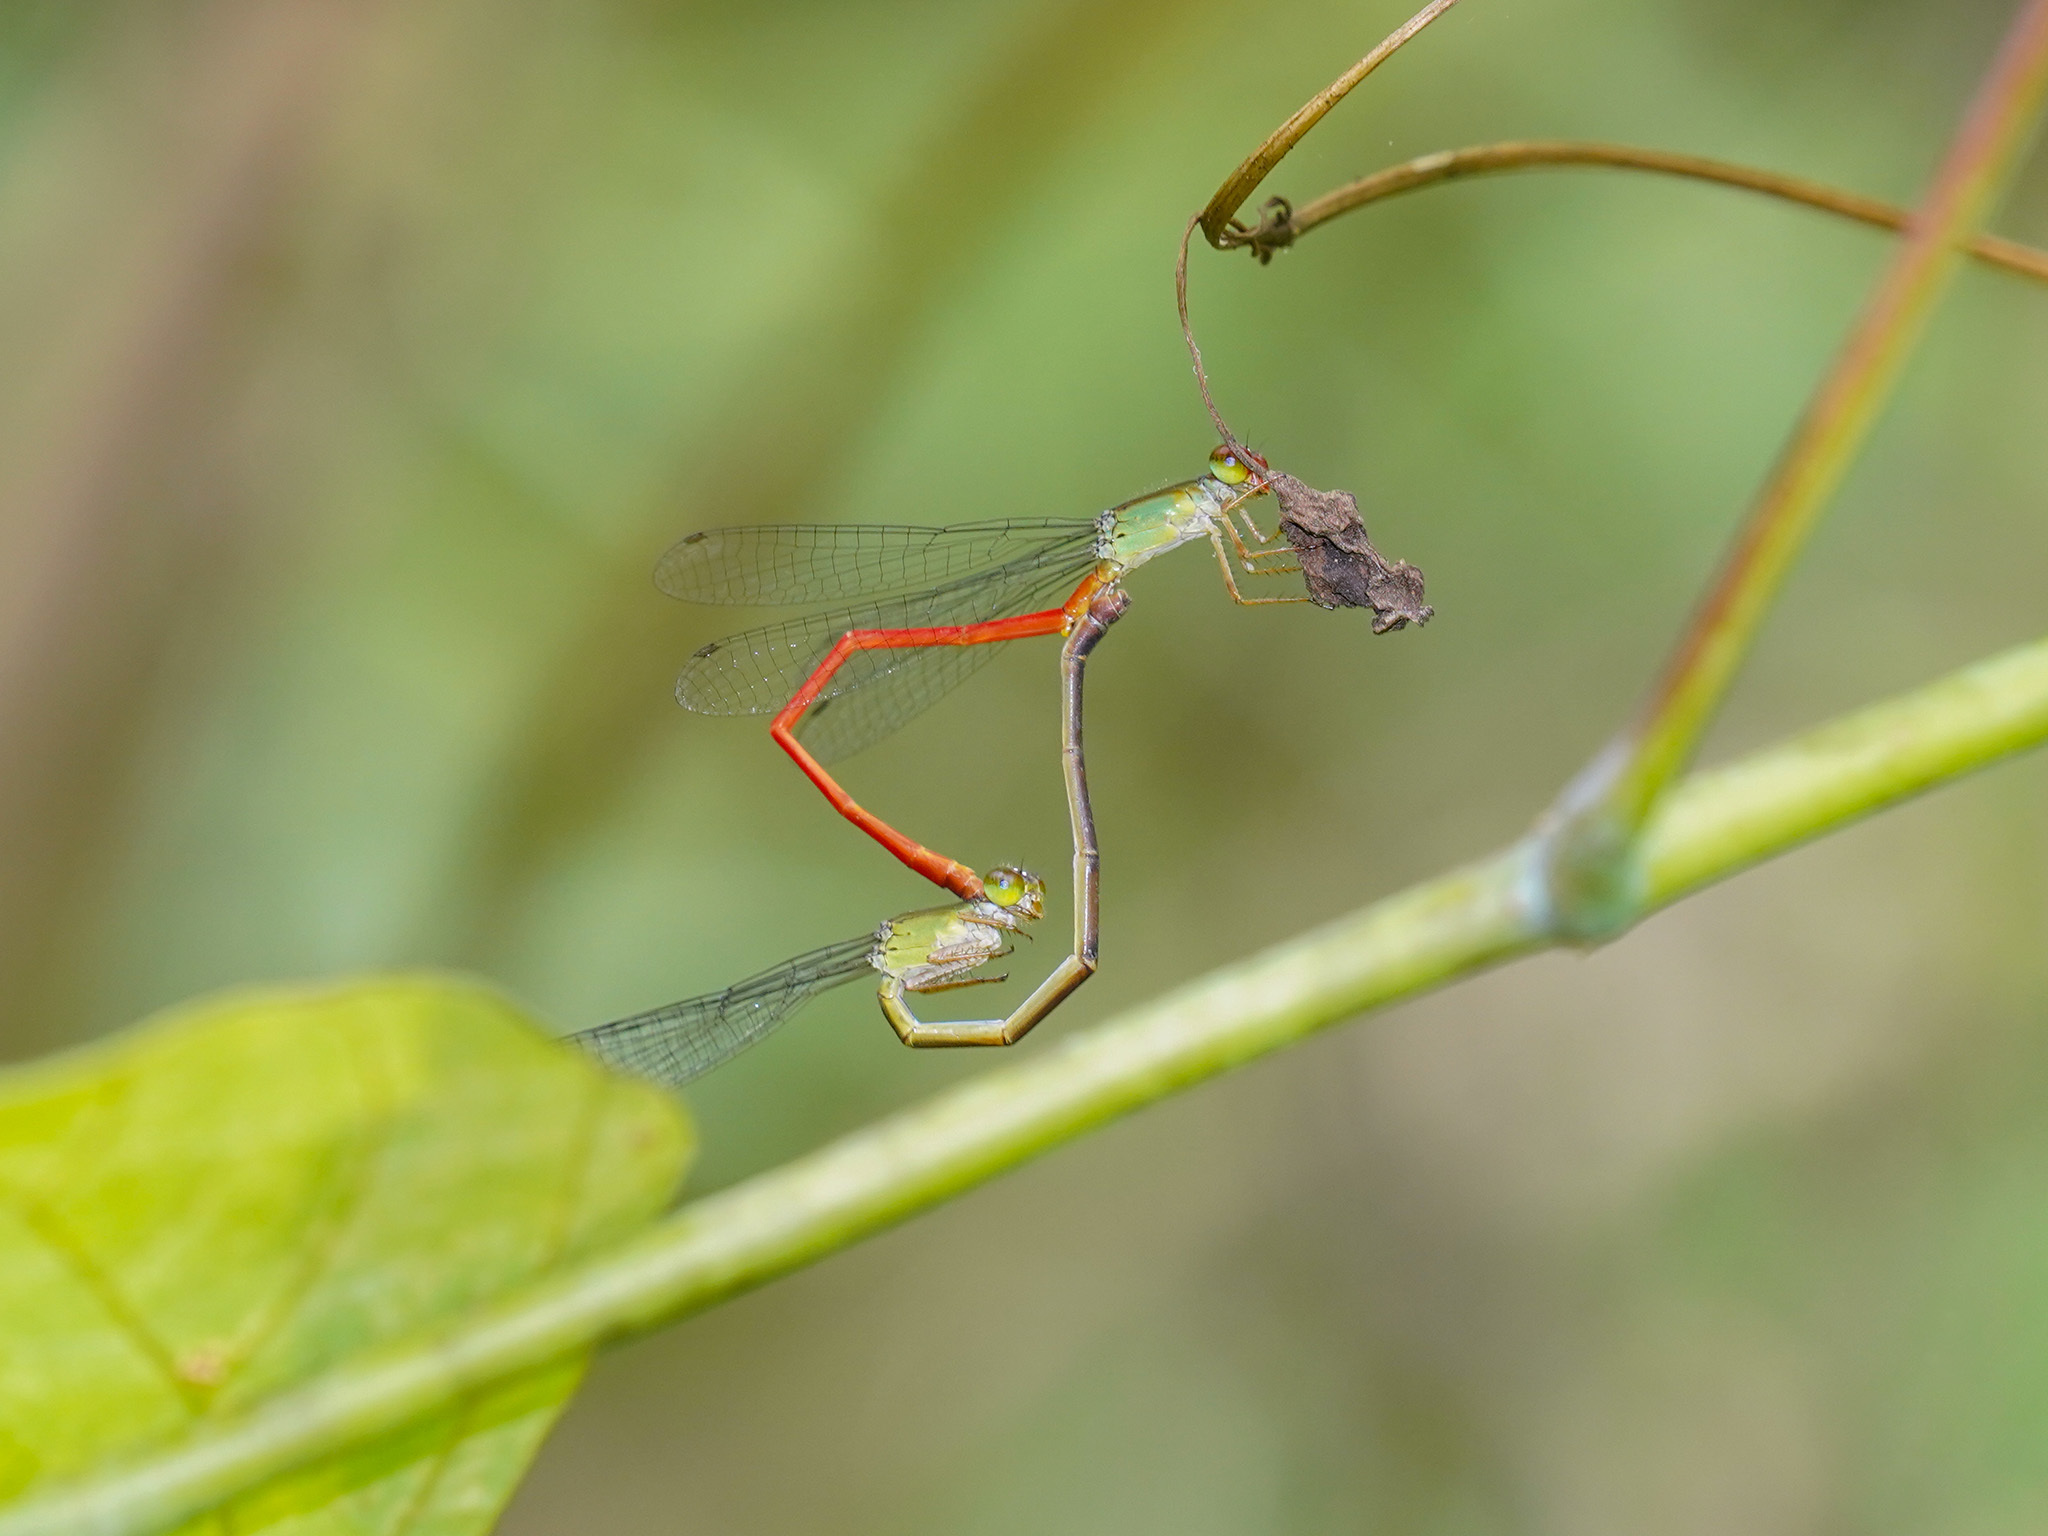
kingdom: Animalia
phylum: Arthropoda
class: Insecta
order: Odonata
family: Coenagrionidae
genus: Ceriagrion
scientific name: Ceriagrion chaoi
